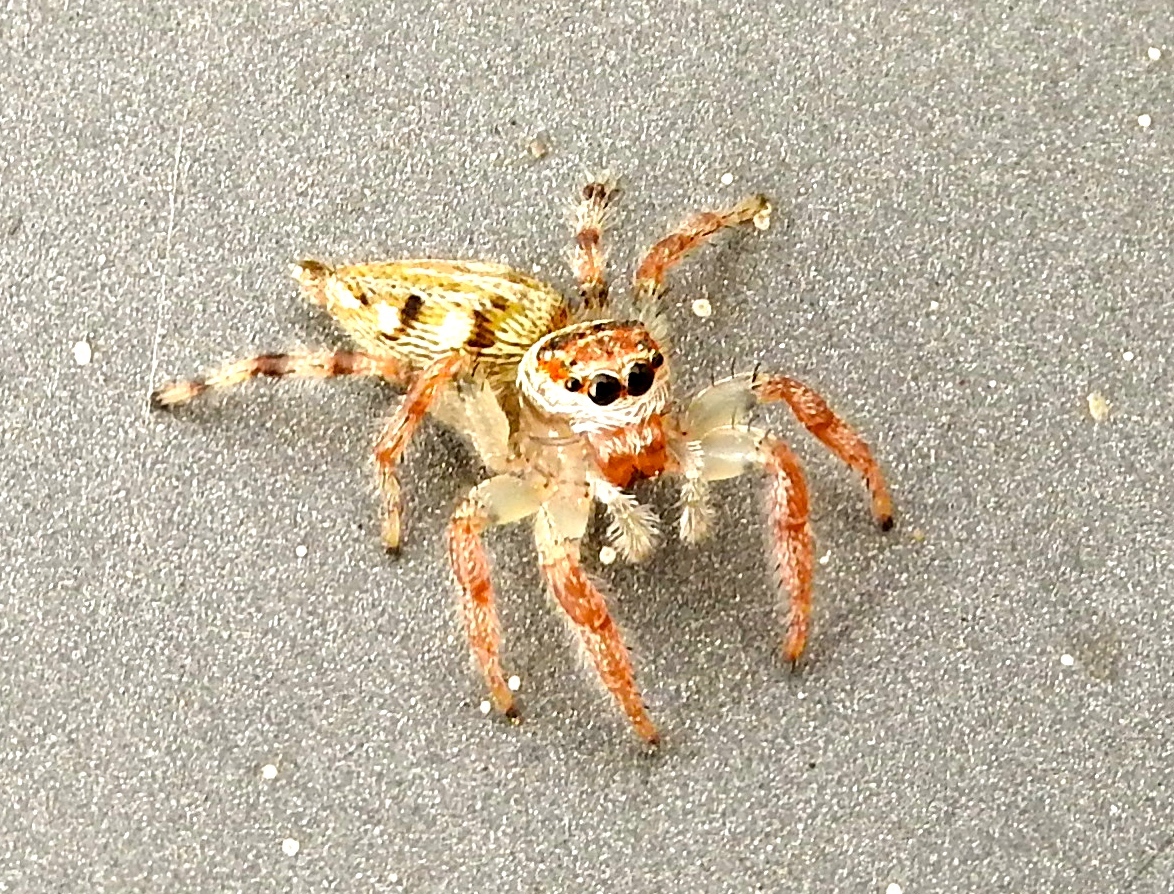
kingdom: Animalia
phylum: Arthropoda
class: Arachnida
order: Araneae
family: Salticidae
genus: Colonus
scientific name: Colonus
